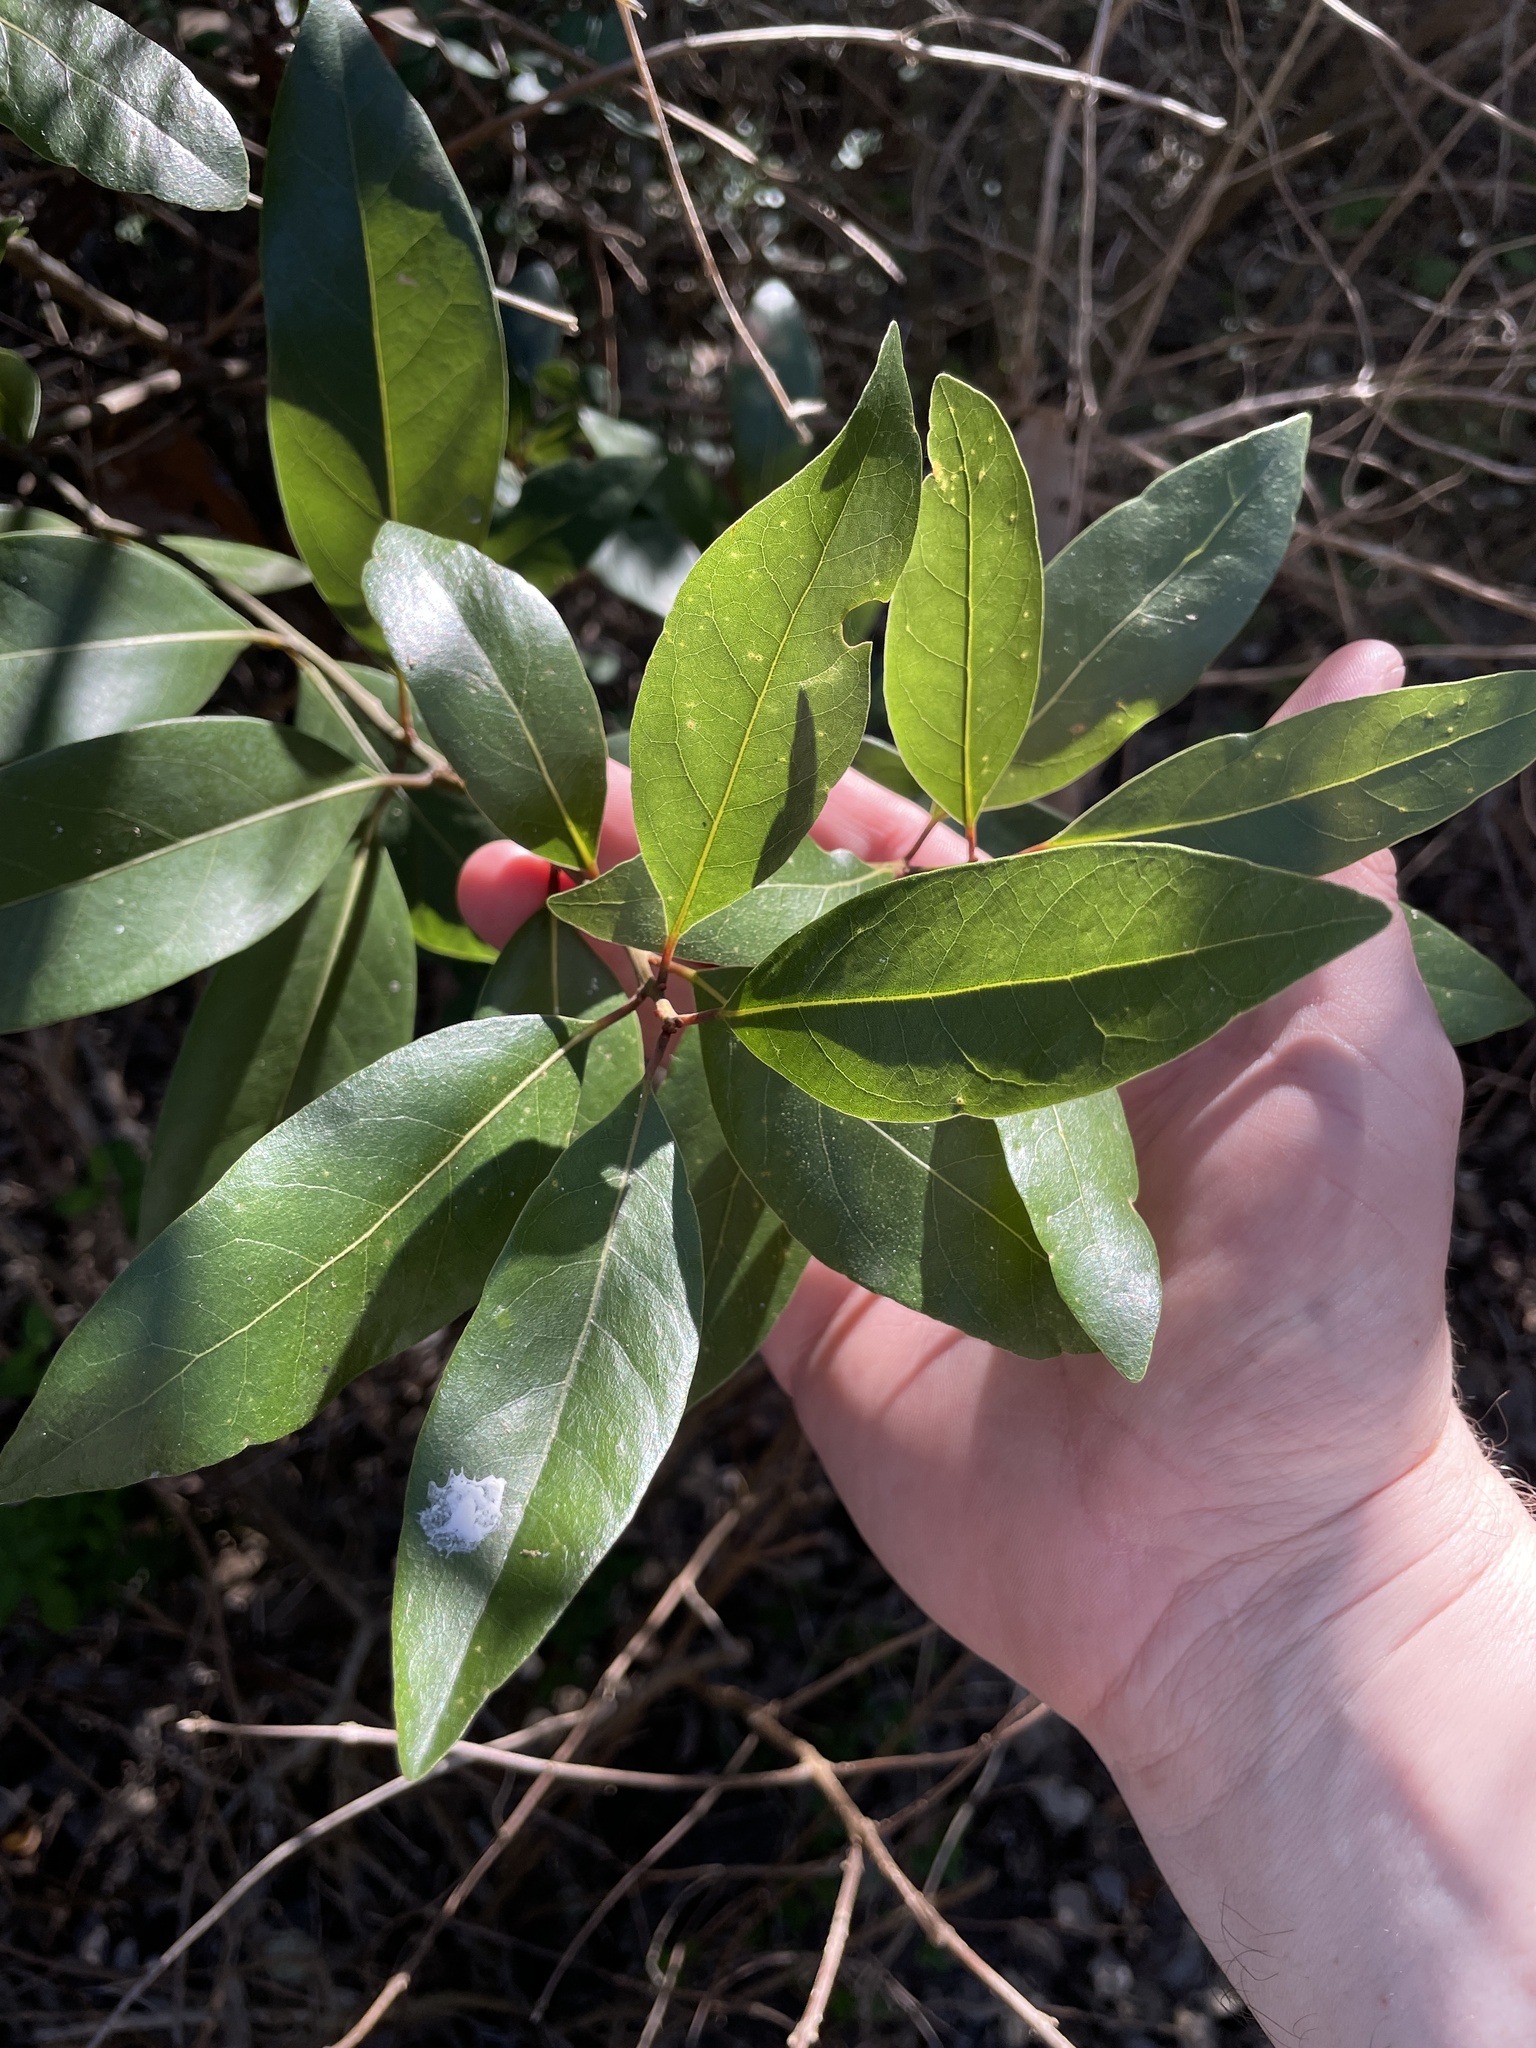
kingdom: Plantae
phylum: Tracheophyta
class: Magnoliopsida
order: Laurales
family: Lauraceae
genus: Persea
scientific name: Persea borbonia
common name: Redbay
